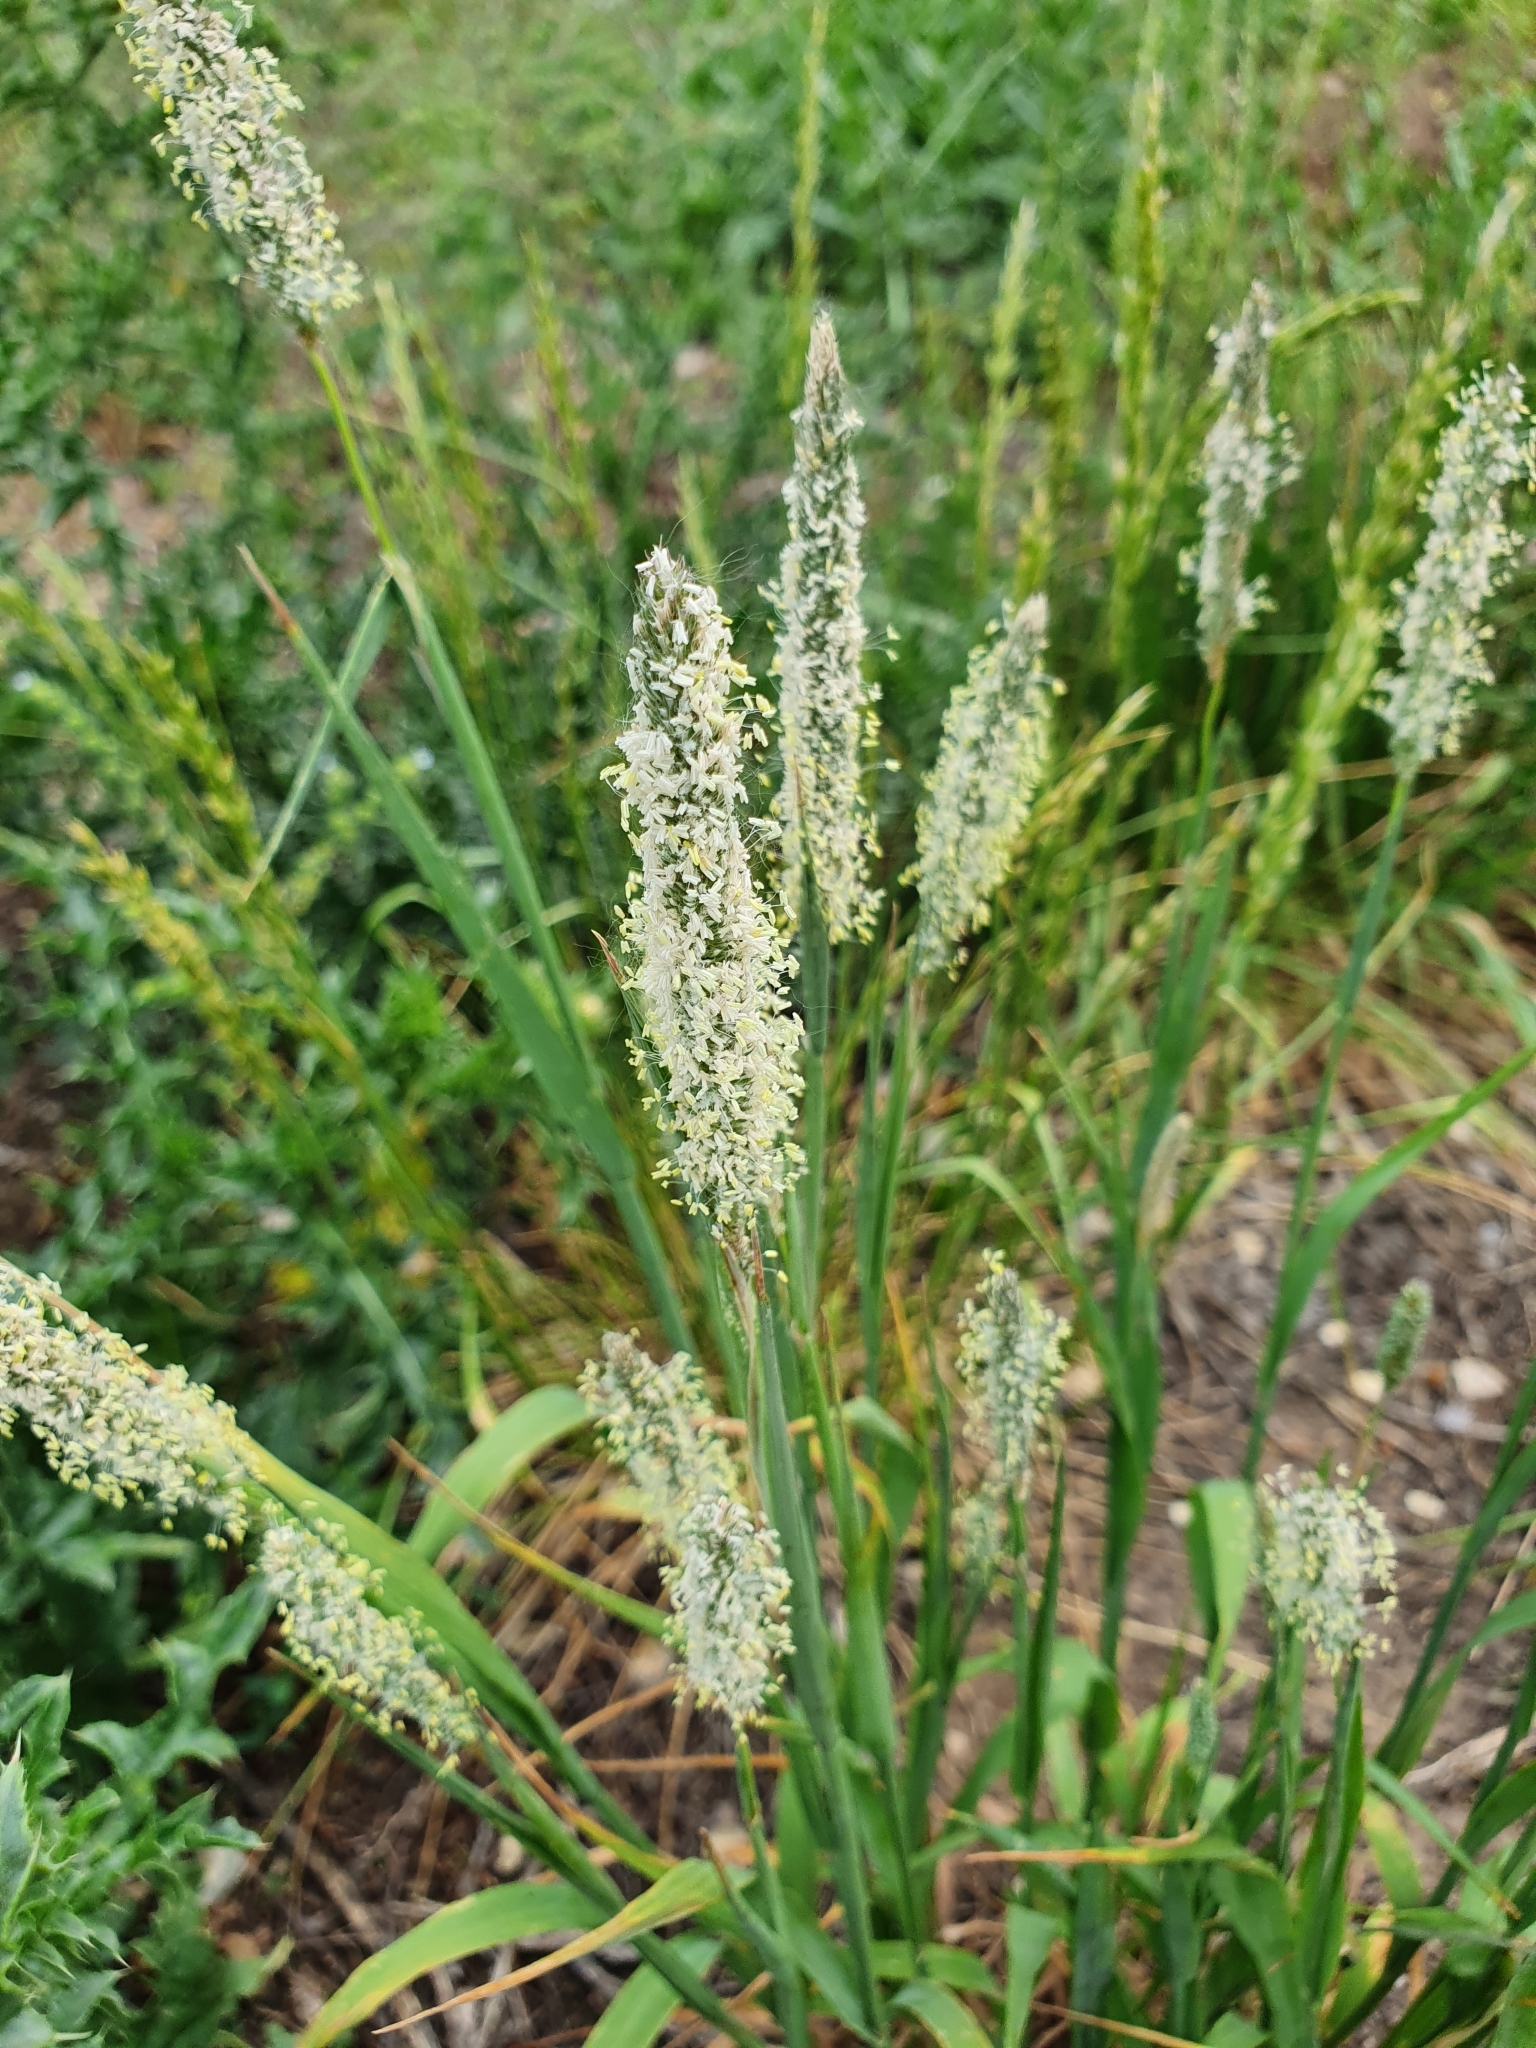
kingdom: Plantae
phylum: Tracheophyta
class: Liliopsida
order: Poales
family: Poaceae
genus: Phleum
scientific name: Phleum pratense
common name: Timothy grass
